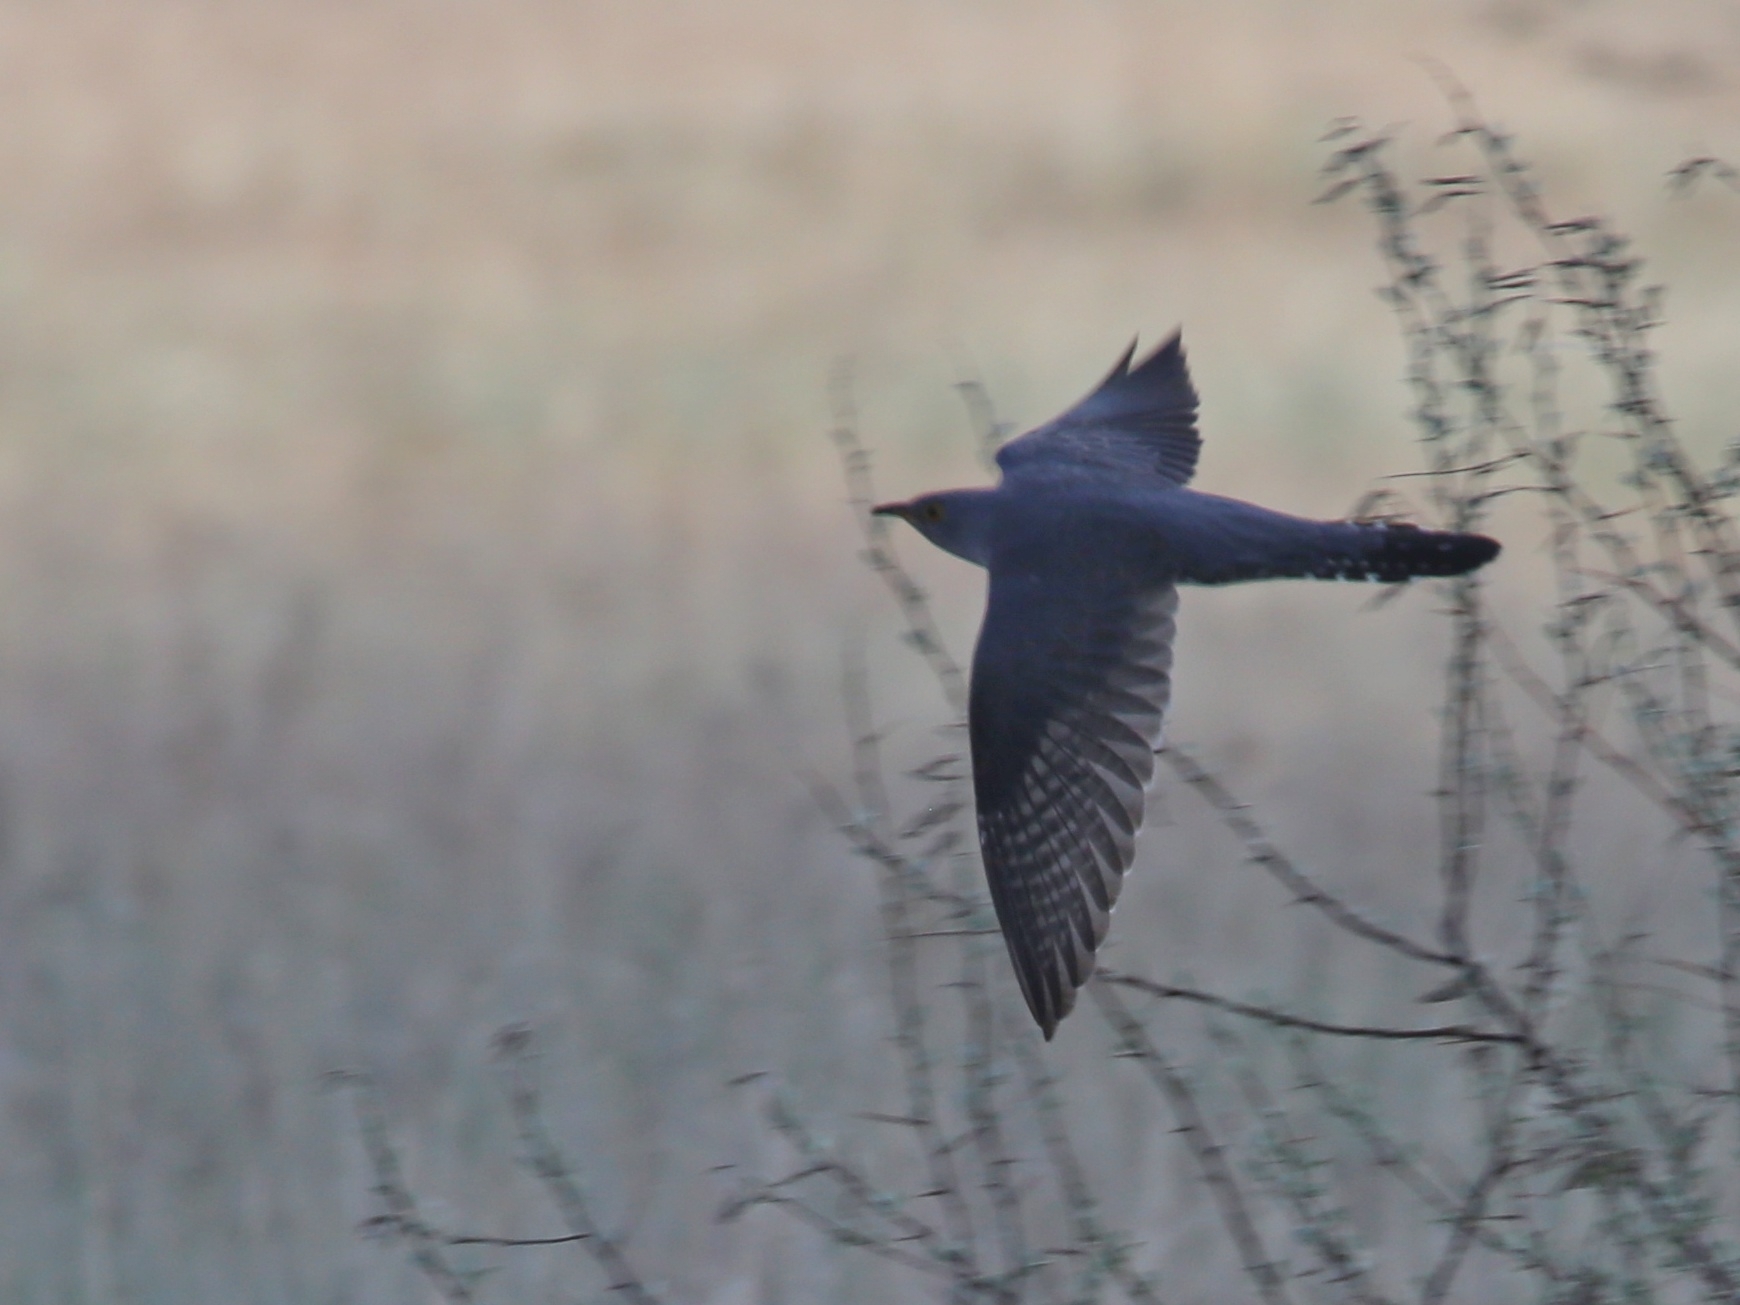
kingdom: Animalia
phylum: Chordata
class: Aves
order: Cuculiformes
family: Cuculidae
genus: Cuculus
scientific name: Cuculus canorus
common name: Common cuckoo
